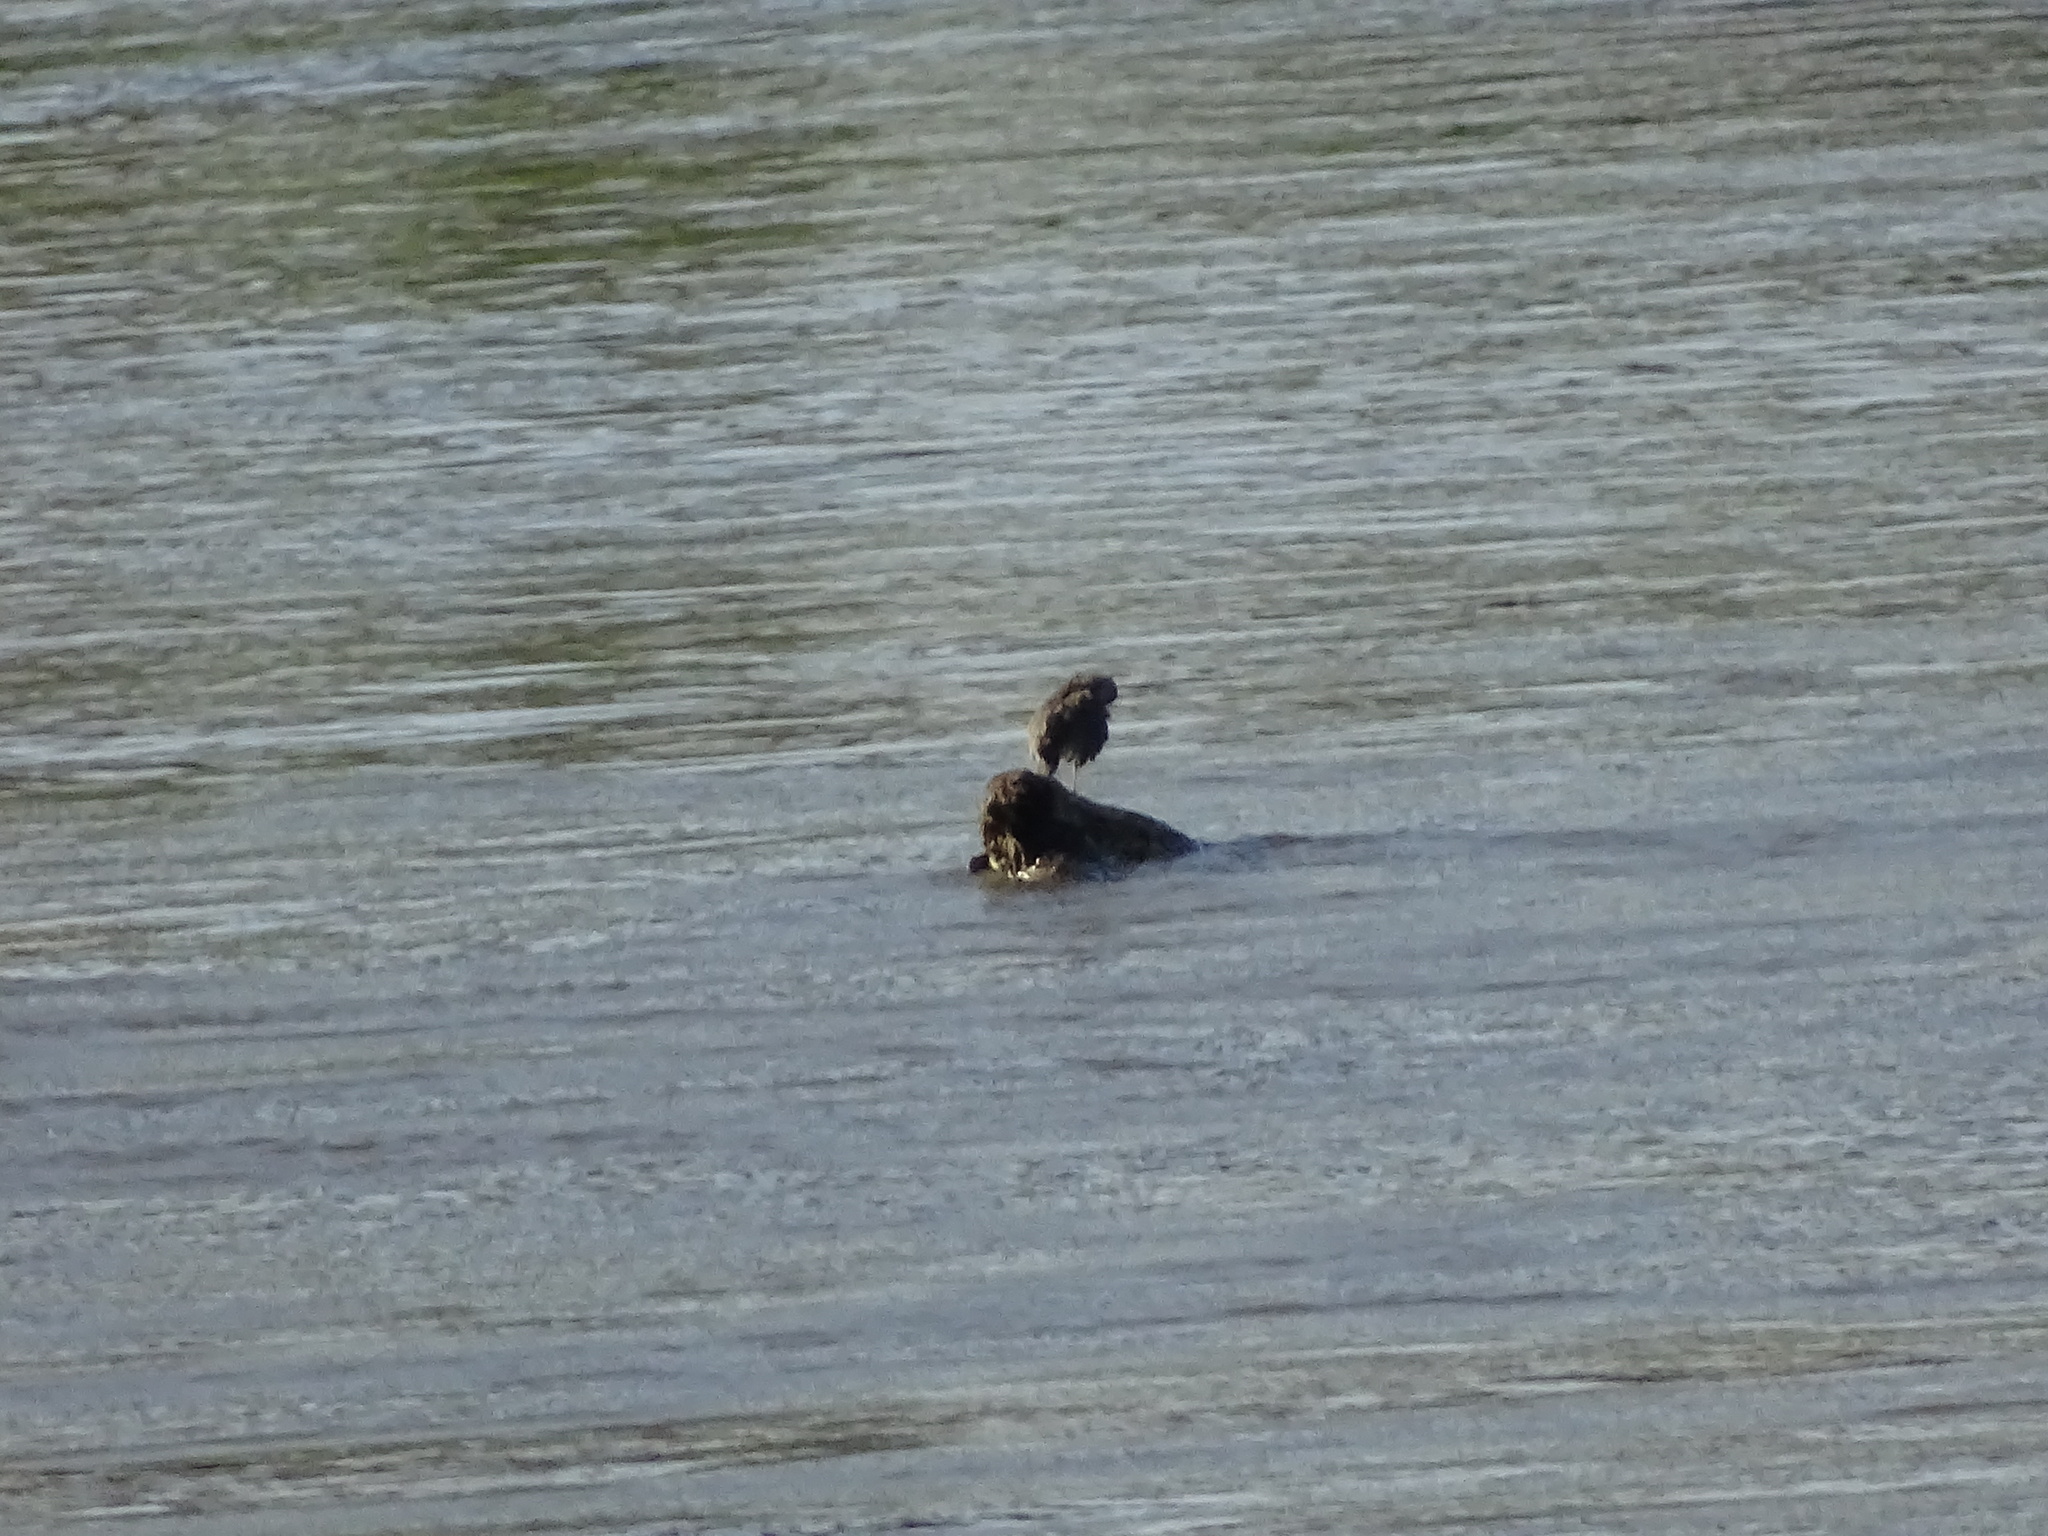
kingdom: Animalia
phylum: Chordata
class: Aves
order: Charadriiformes
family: Scolopacidae
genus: Actitis
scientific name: Actitis macularius
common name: Spotted sandpiper
